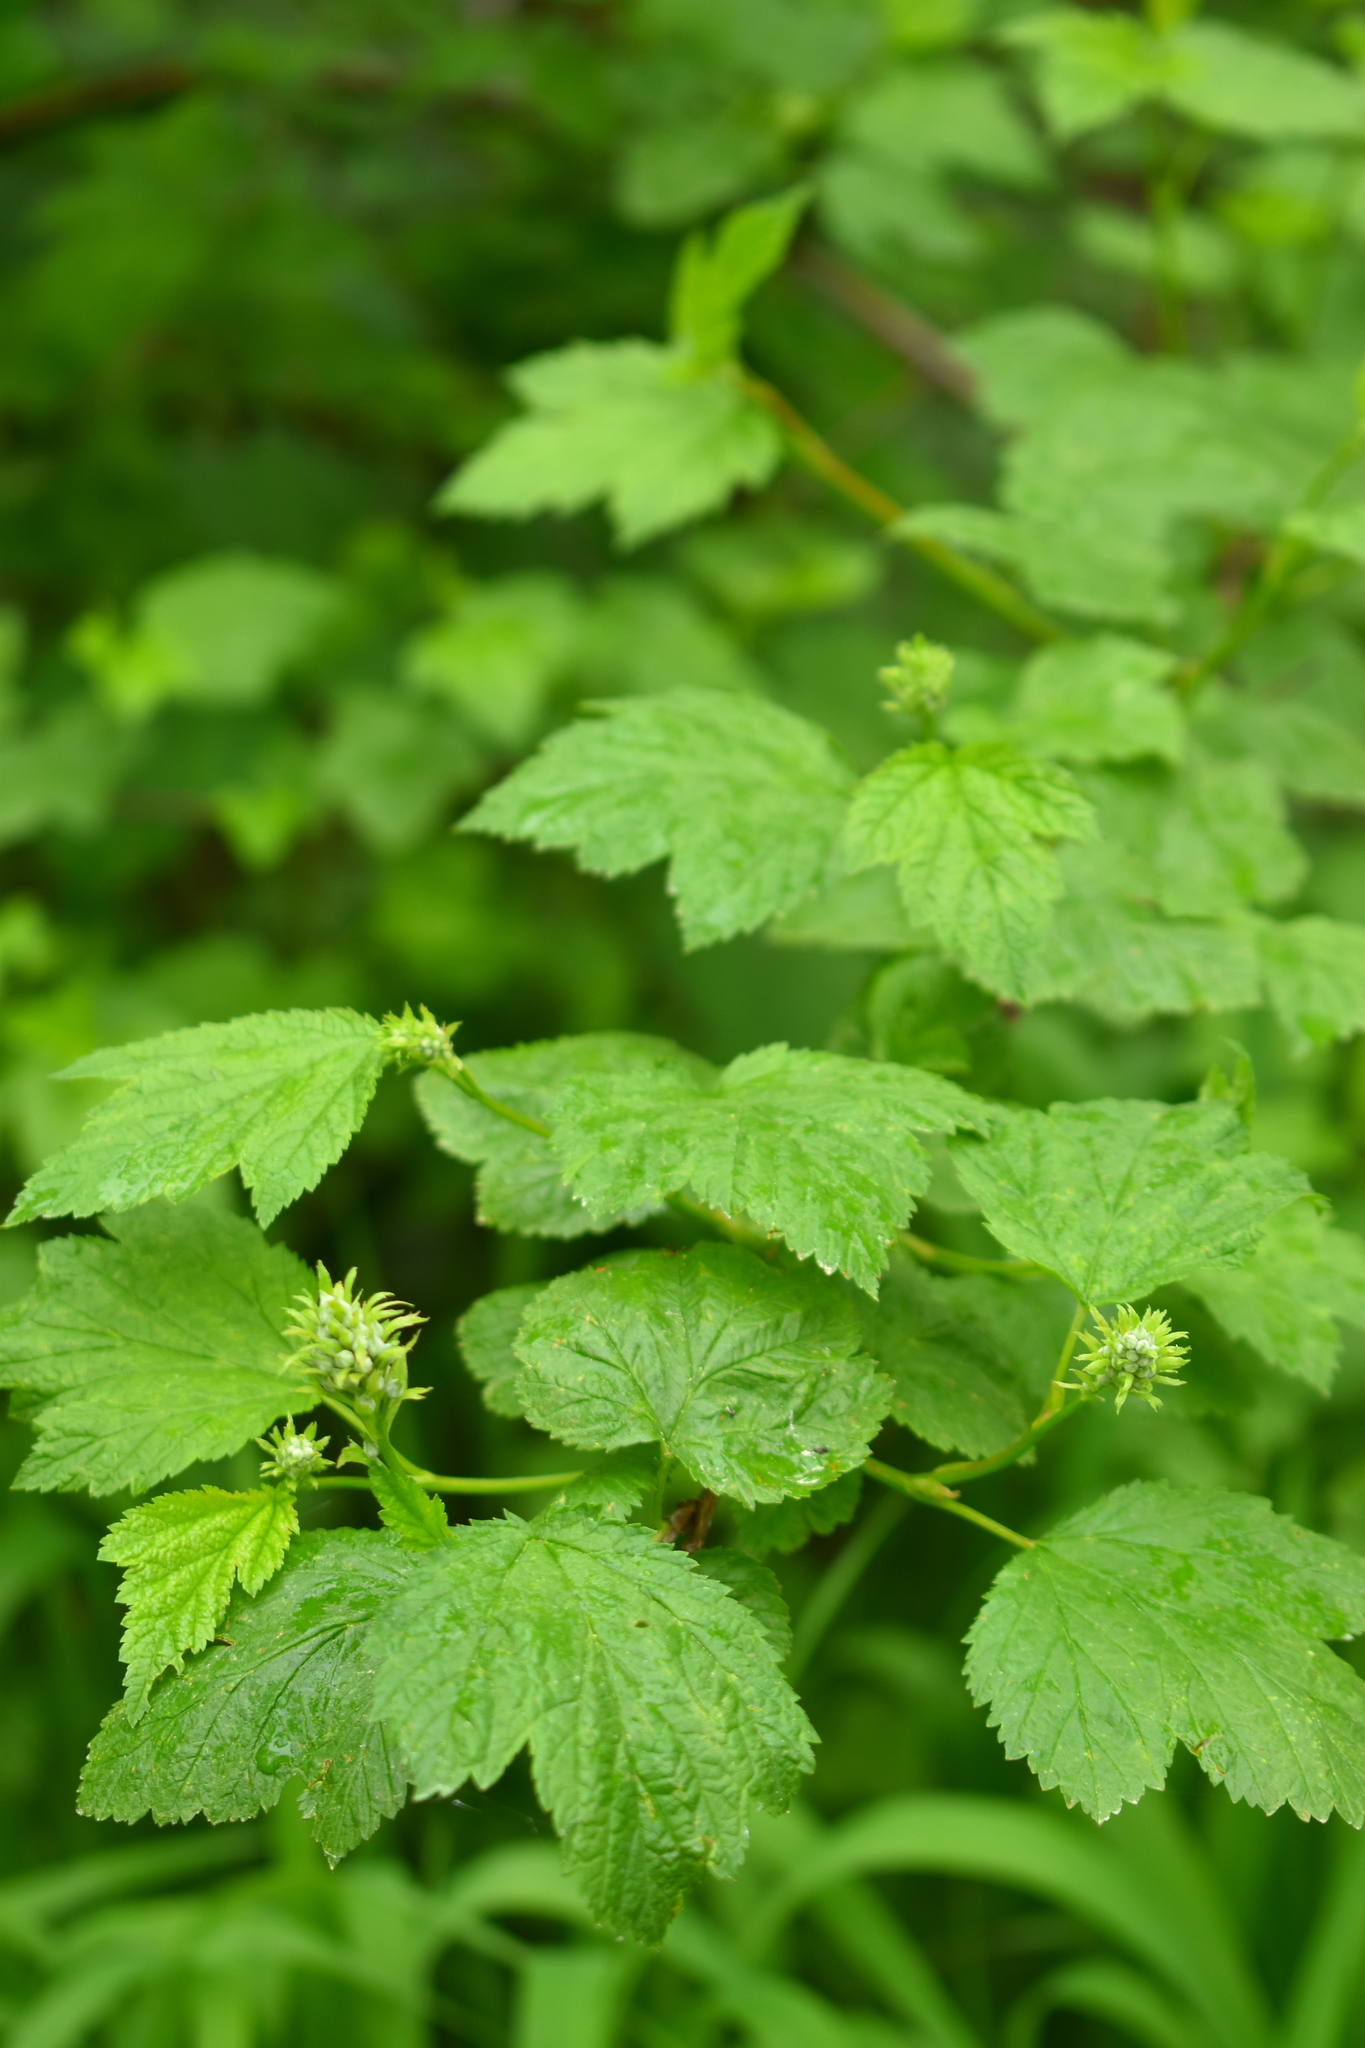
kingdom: Plantae
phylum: Tracheophyta
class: Magnoliopsida
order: Rosales
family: Rosaceae
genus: Physocarpus
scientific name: Physocarpus capitatus
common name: Pacific ninebark
